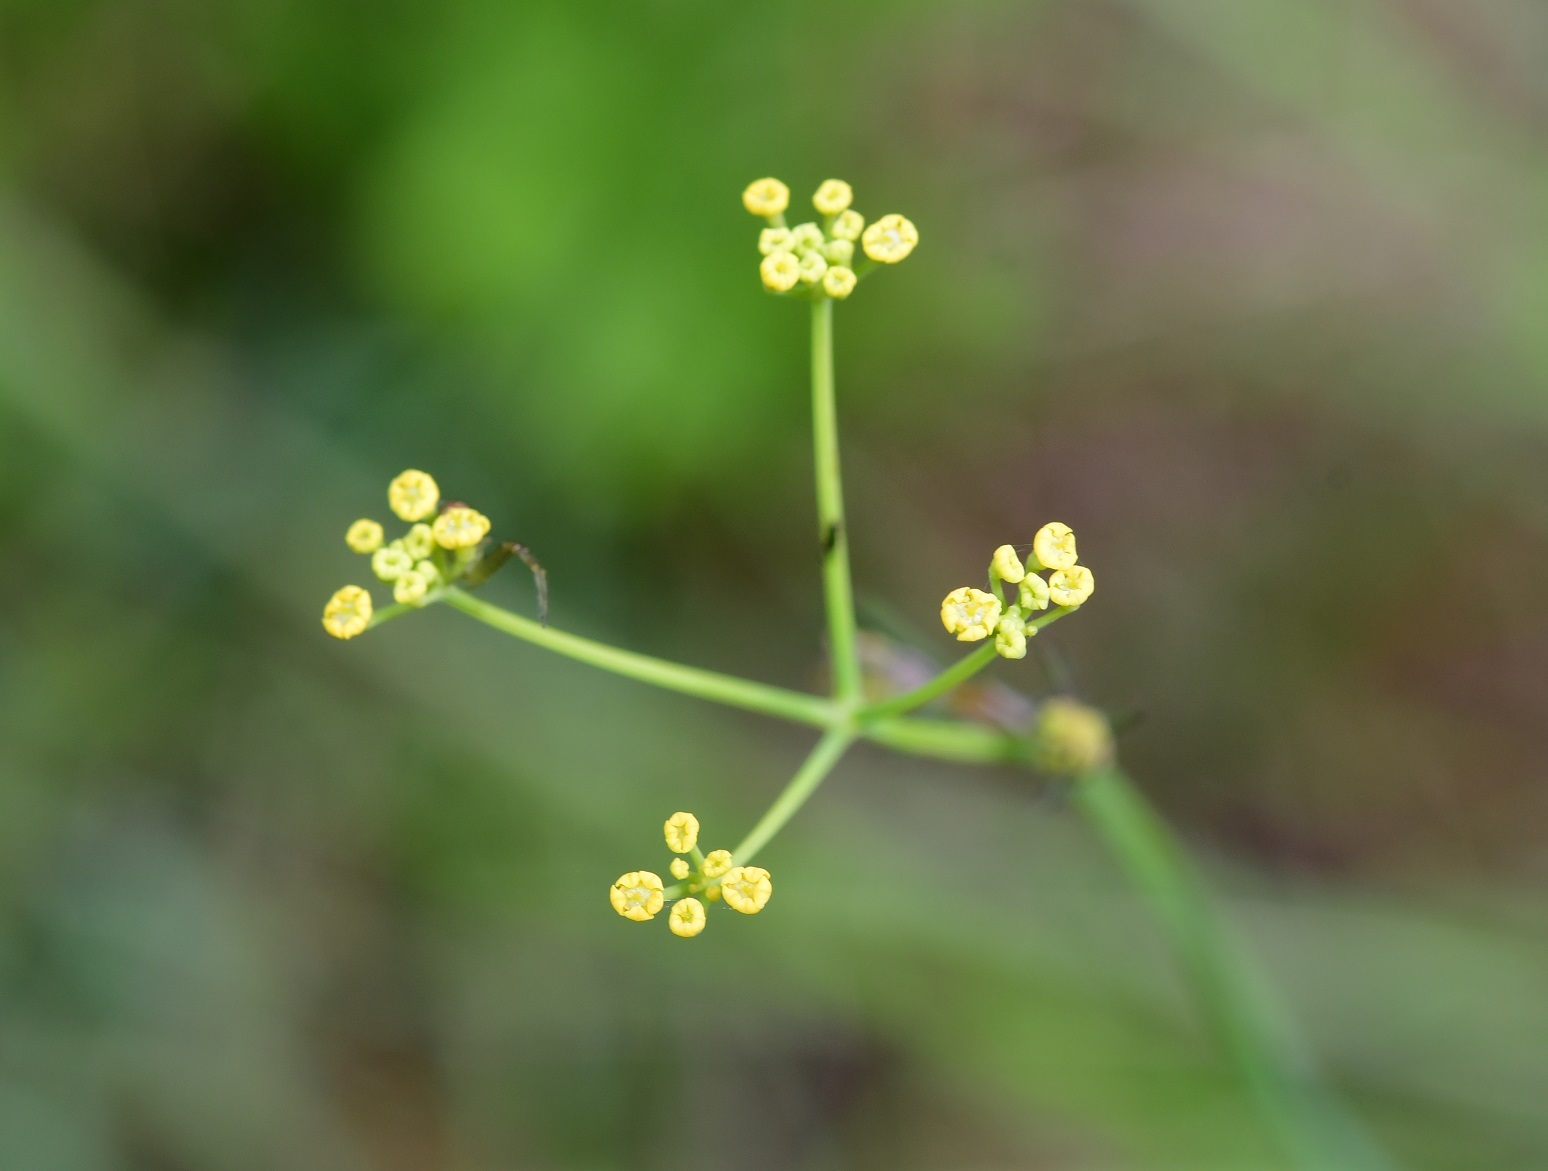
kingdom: Plantae
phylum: Tracheophyta
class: Magnoliopsida
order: Apiales
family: Apiaceae
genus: Donnellsmithia
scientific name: Donnellsmithia juncea
